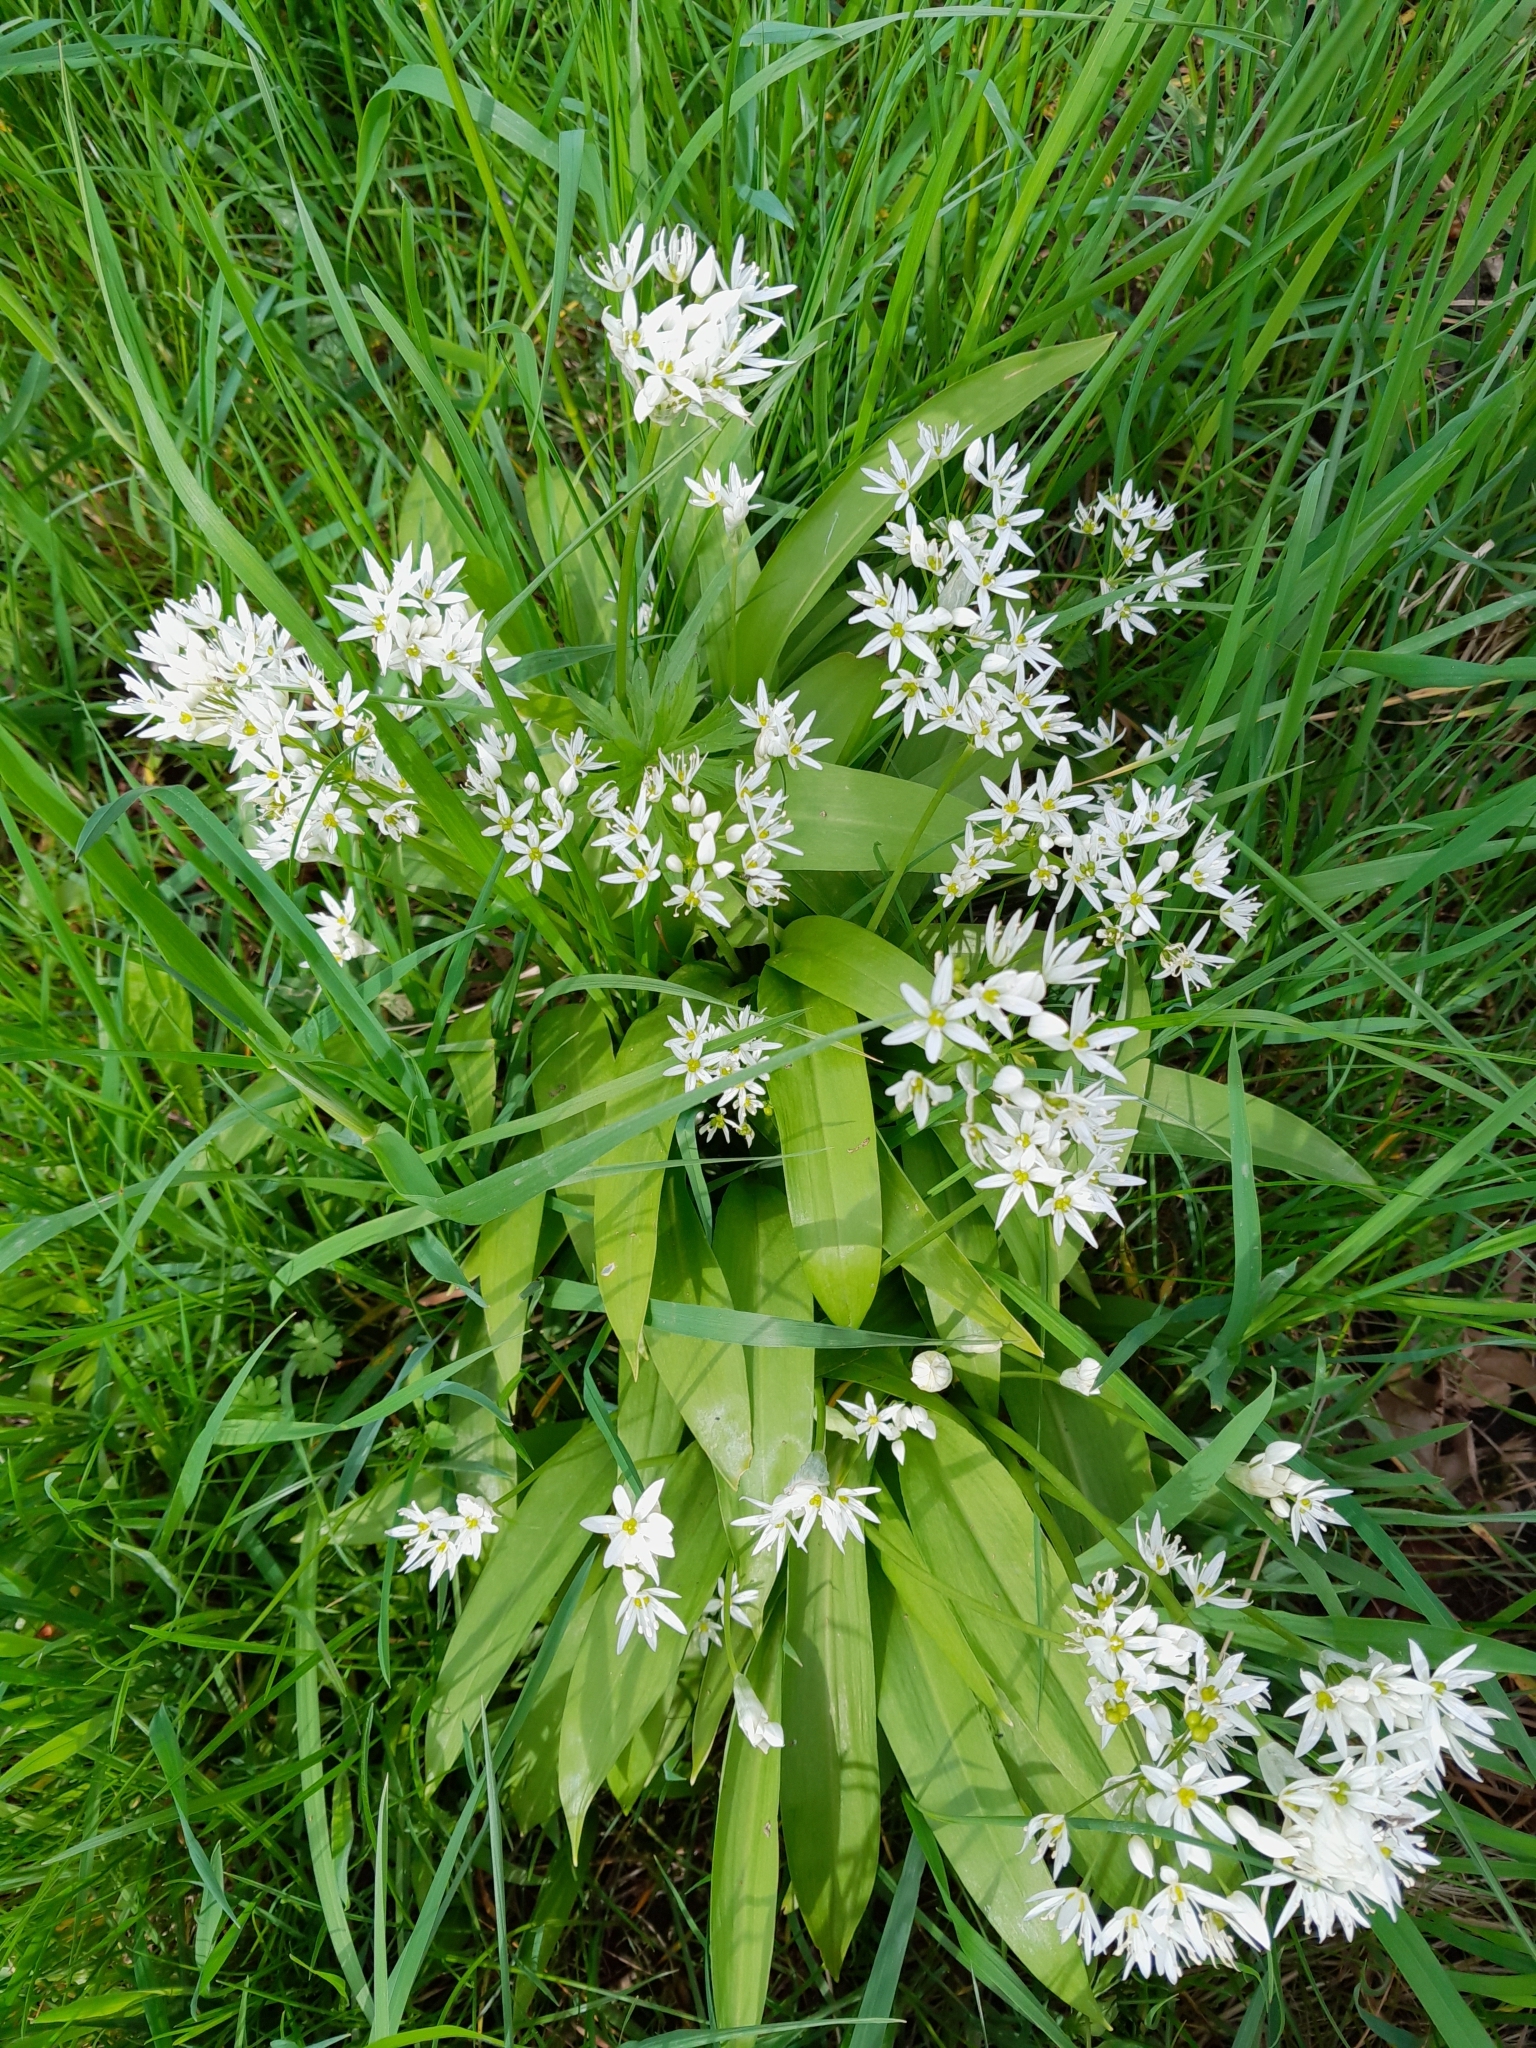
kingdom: Plantae
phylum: Tracheophyta
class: Liliopsida
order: Asparagales
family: Amaryllidaceae
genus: Allium
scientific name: Allium ursinum
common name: Ramsons
